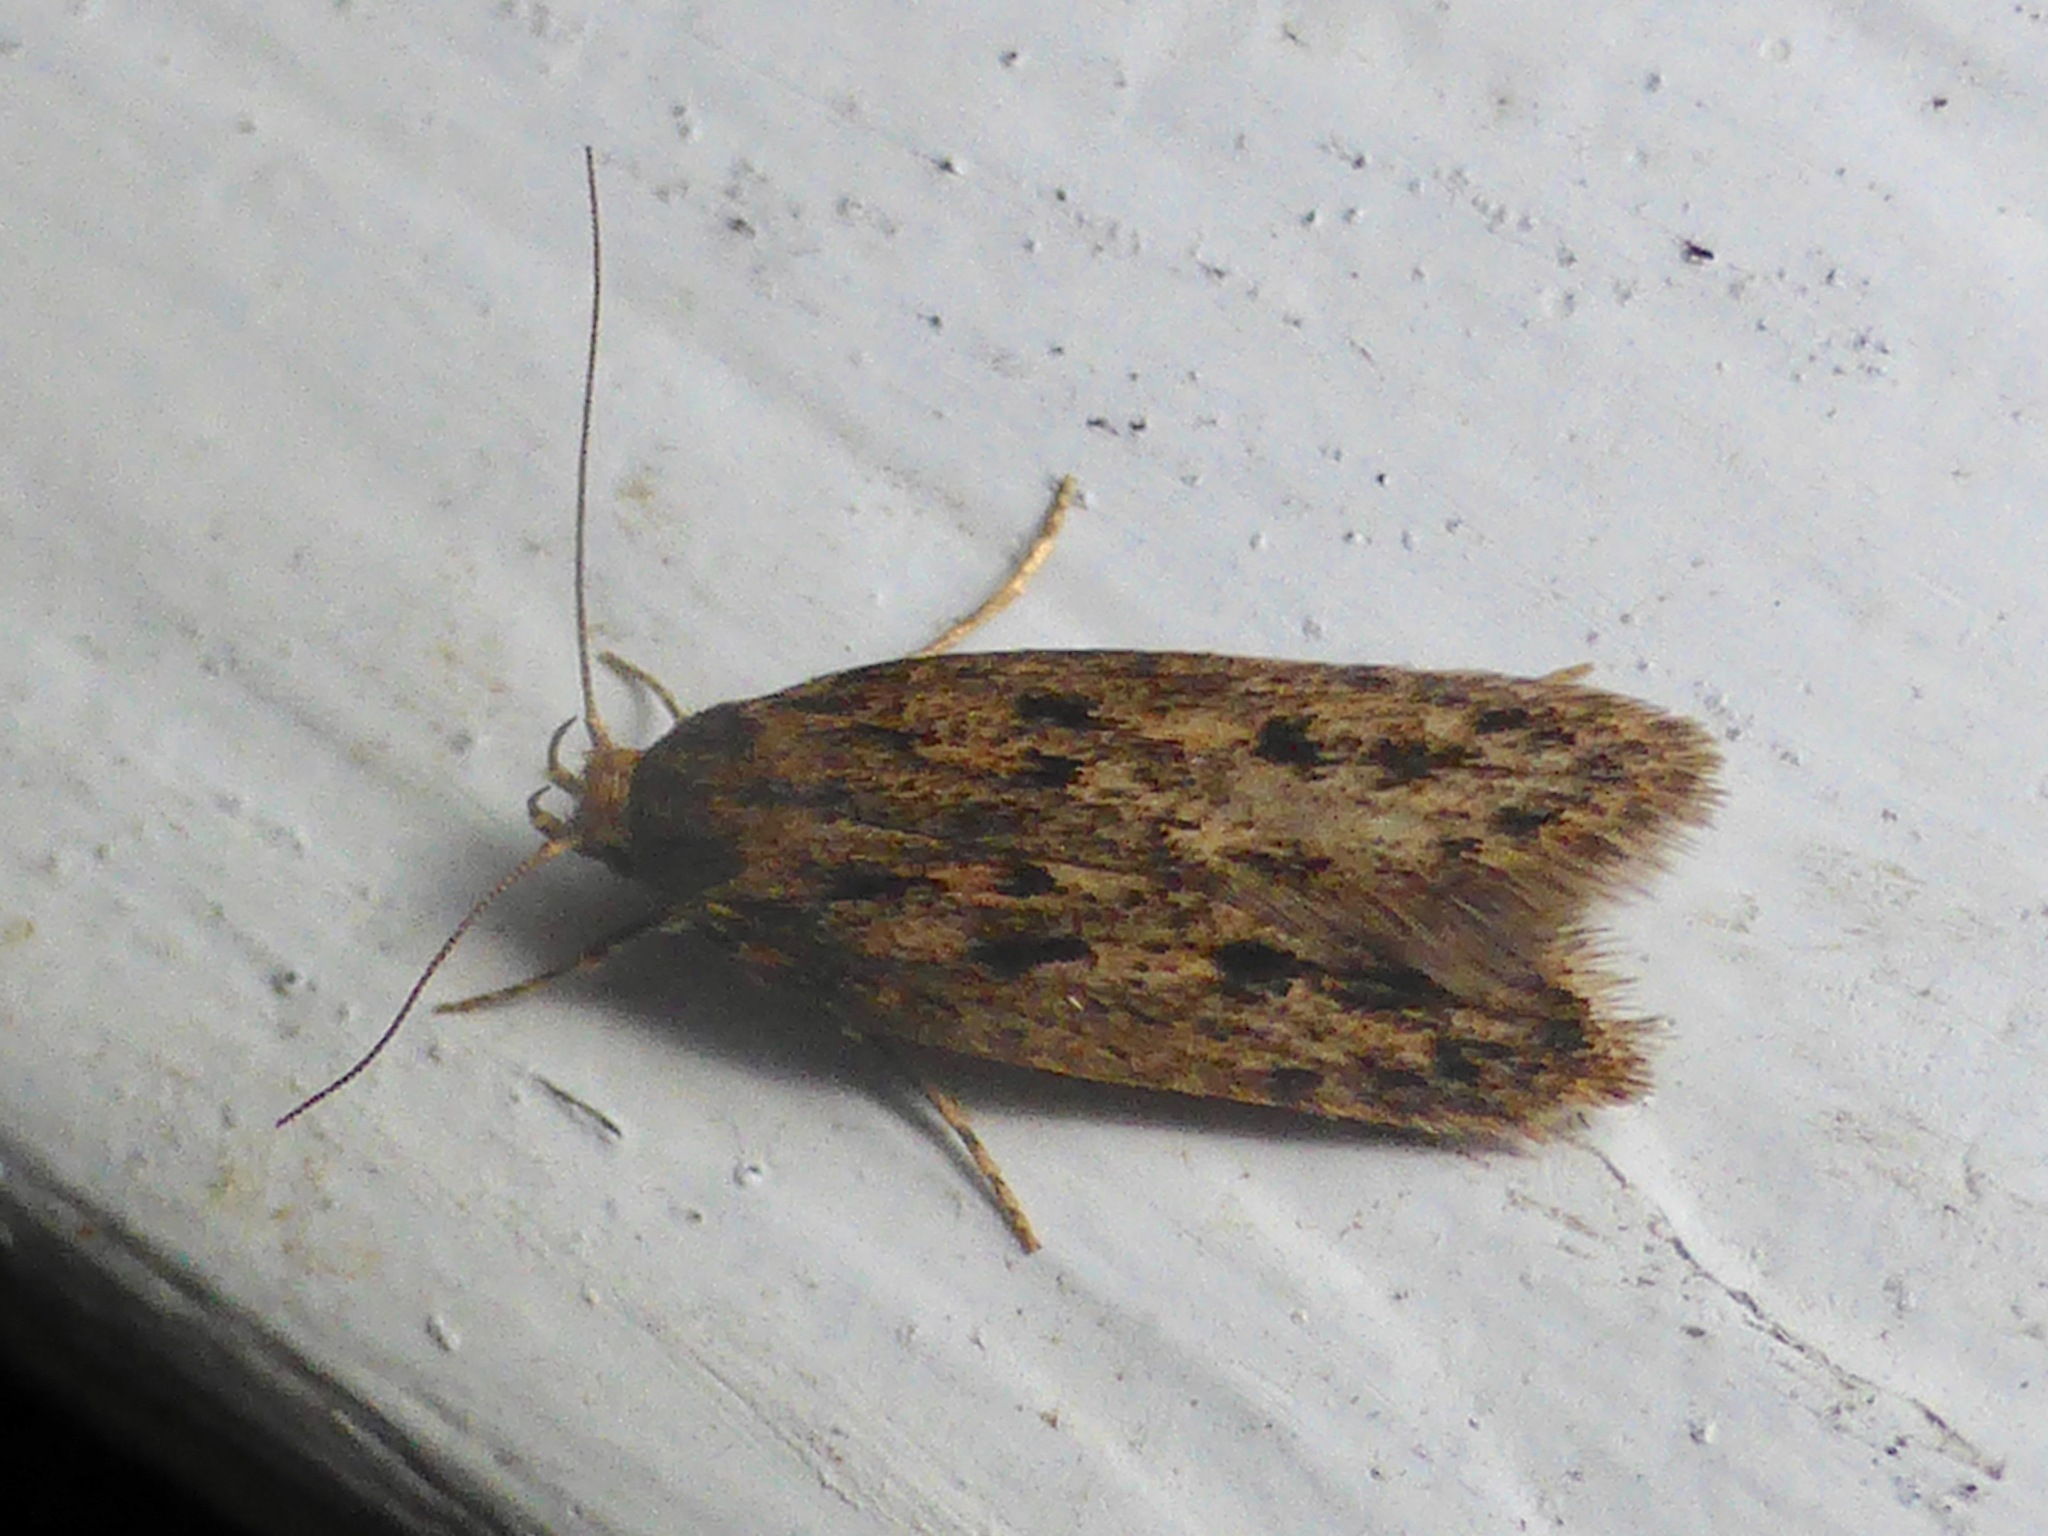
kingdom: Animalia
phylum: Arthropoda
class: Insecta
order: Lepidoptera
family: Oecophoridae
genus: Hofmannophila
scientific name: Hofmannophila pseudospretella
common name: Brown house moth
